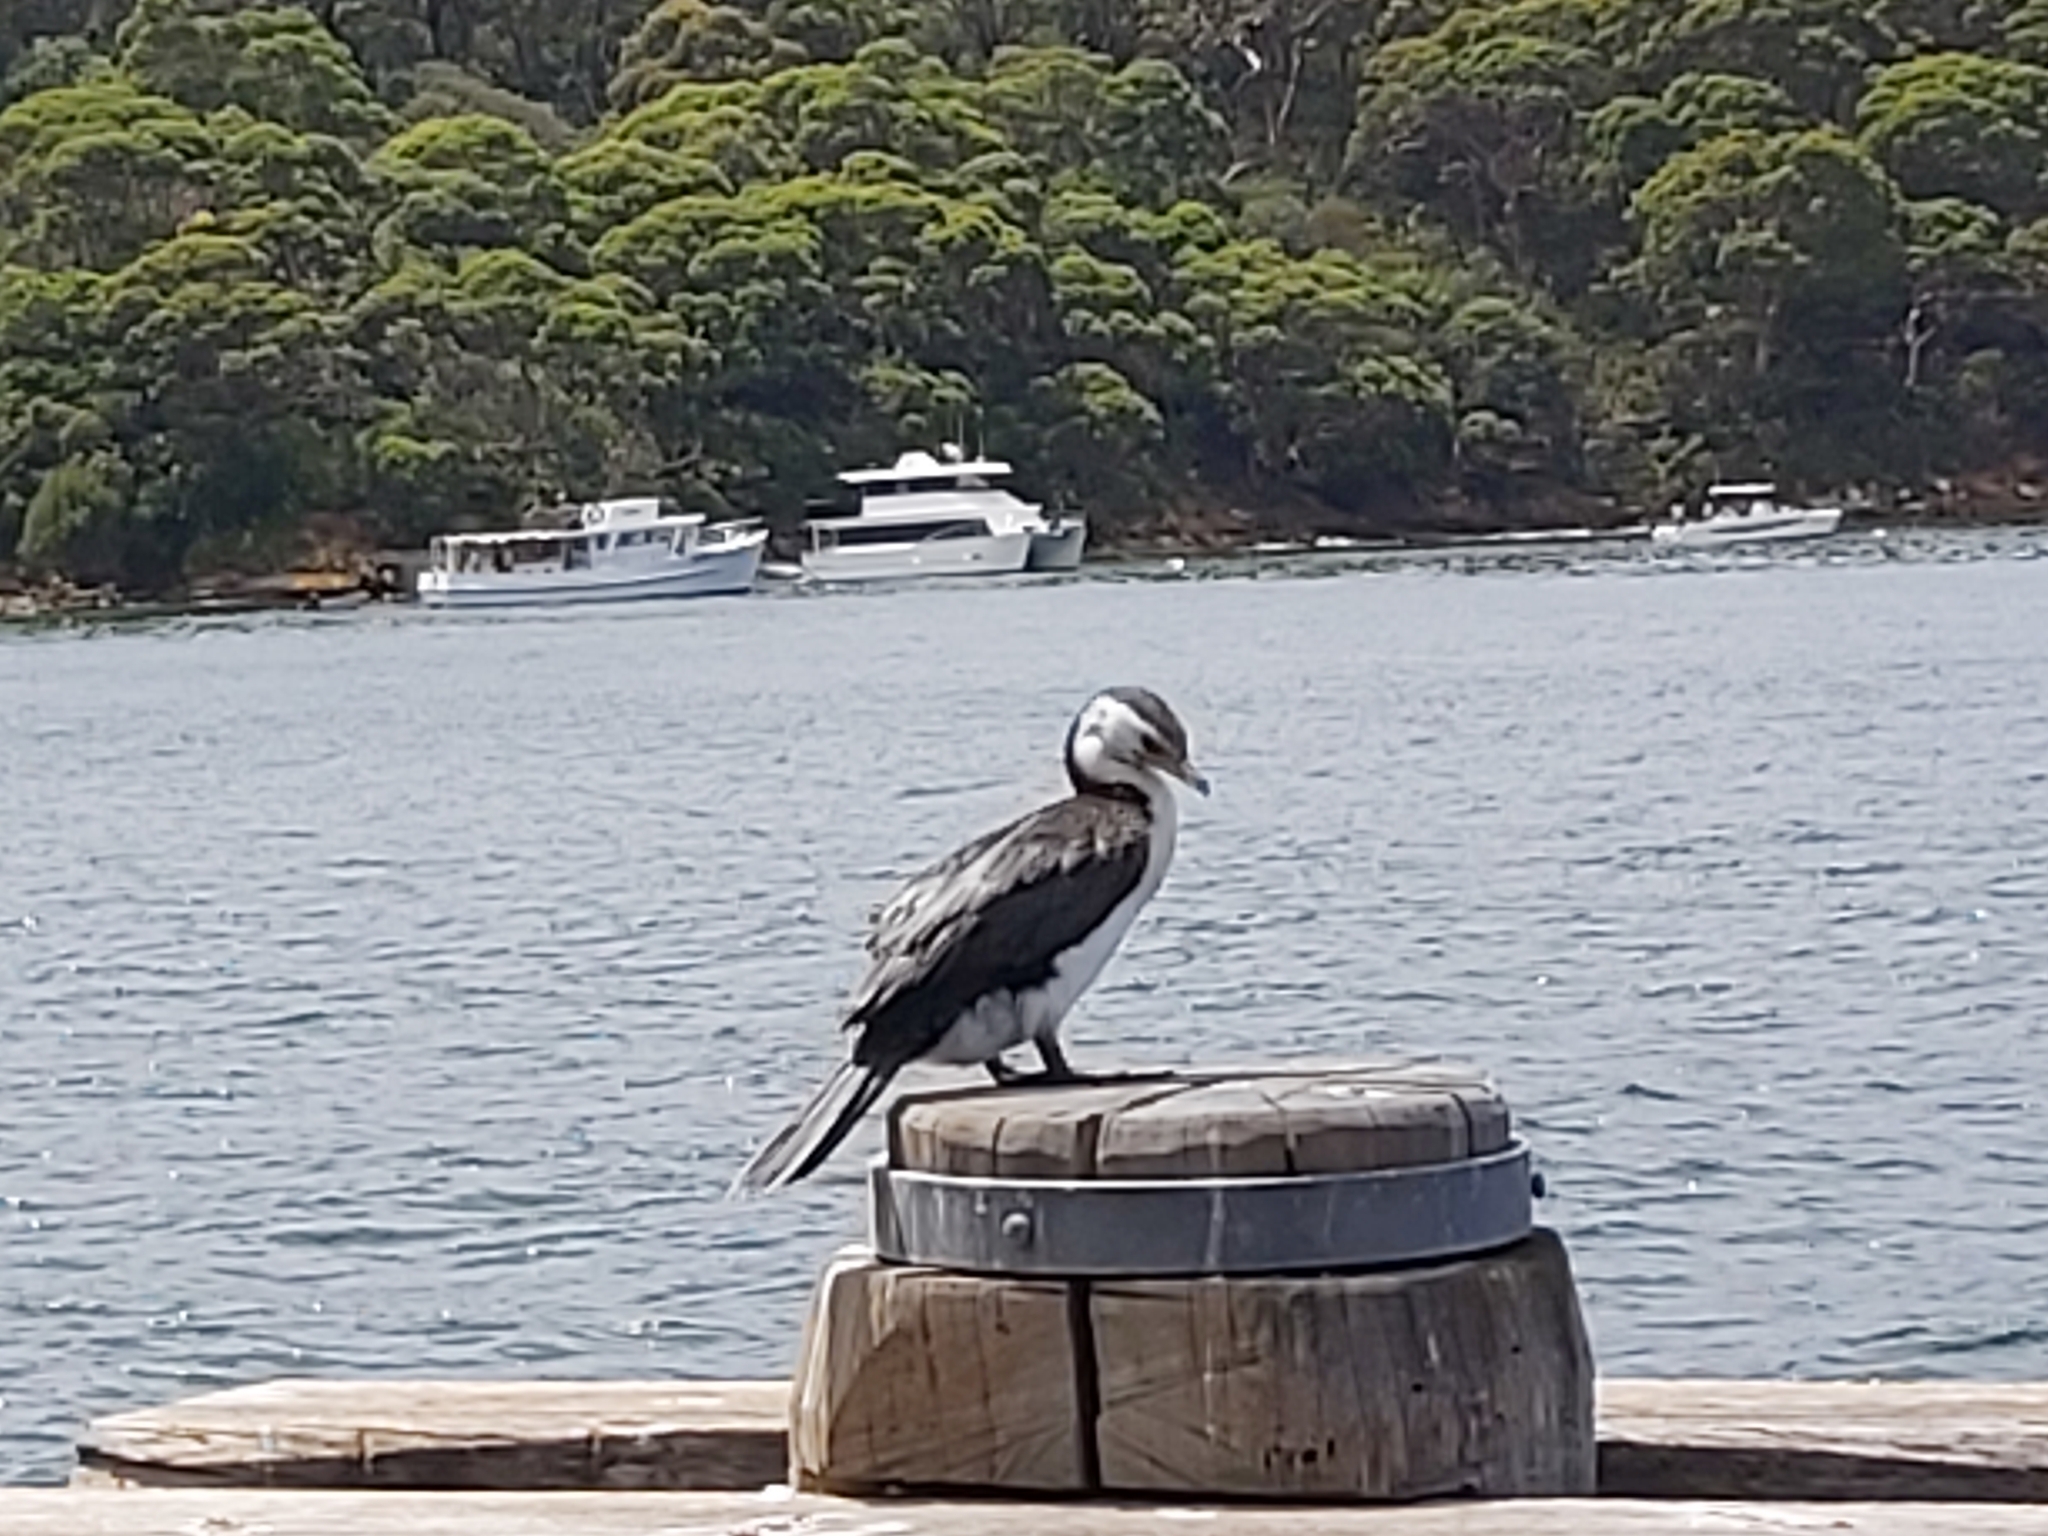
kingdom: Animalia
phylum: Chordata
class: Aves
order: Suliformes
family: Phalacrocoracidae
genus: Microcarbo
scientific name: Microcarbo melanoleucos
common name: Little pied cormorant
